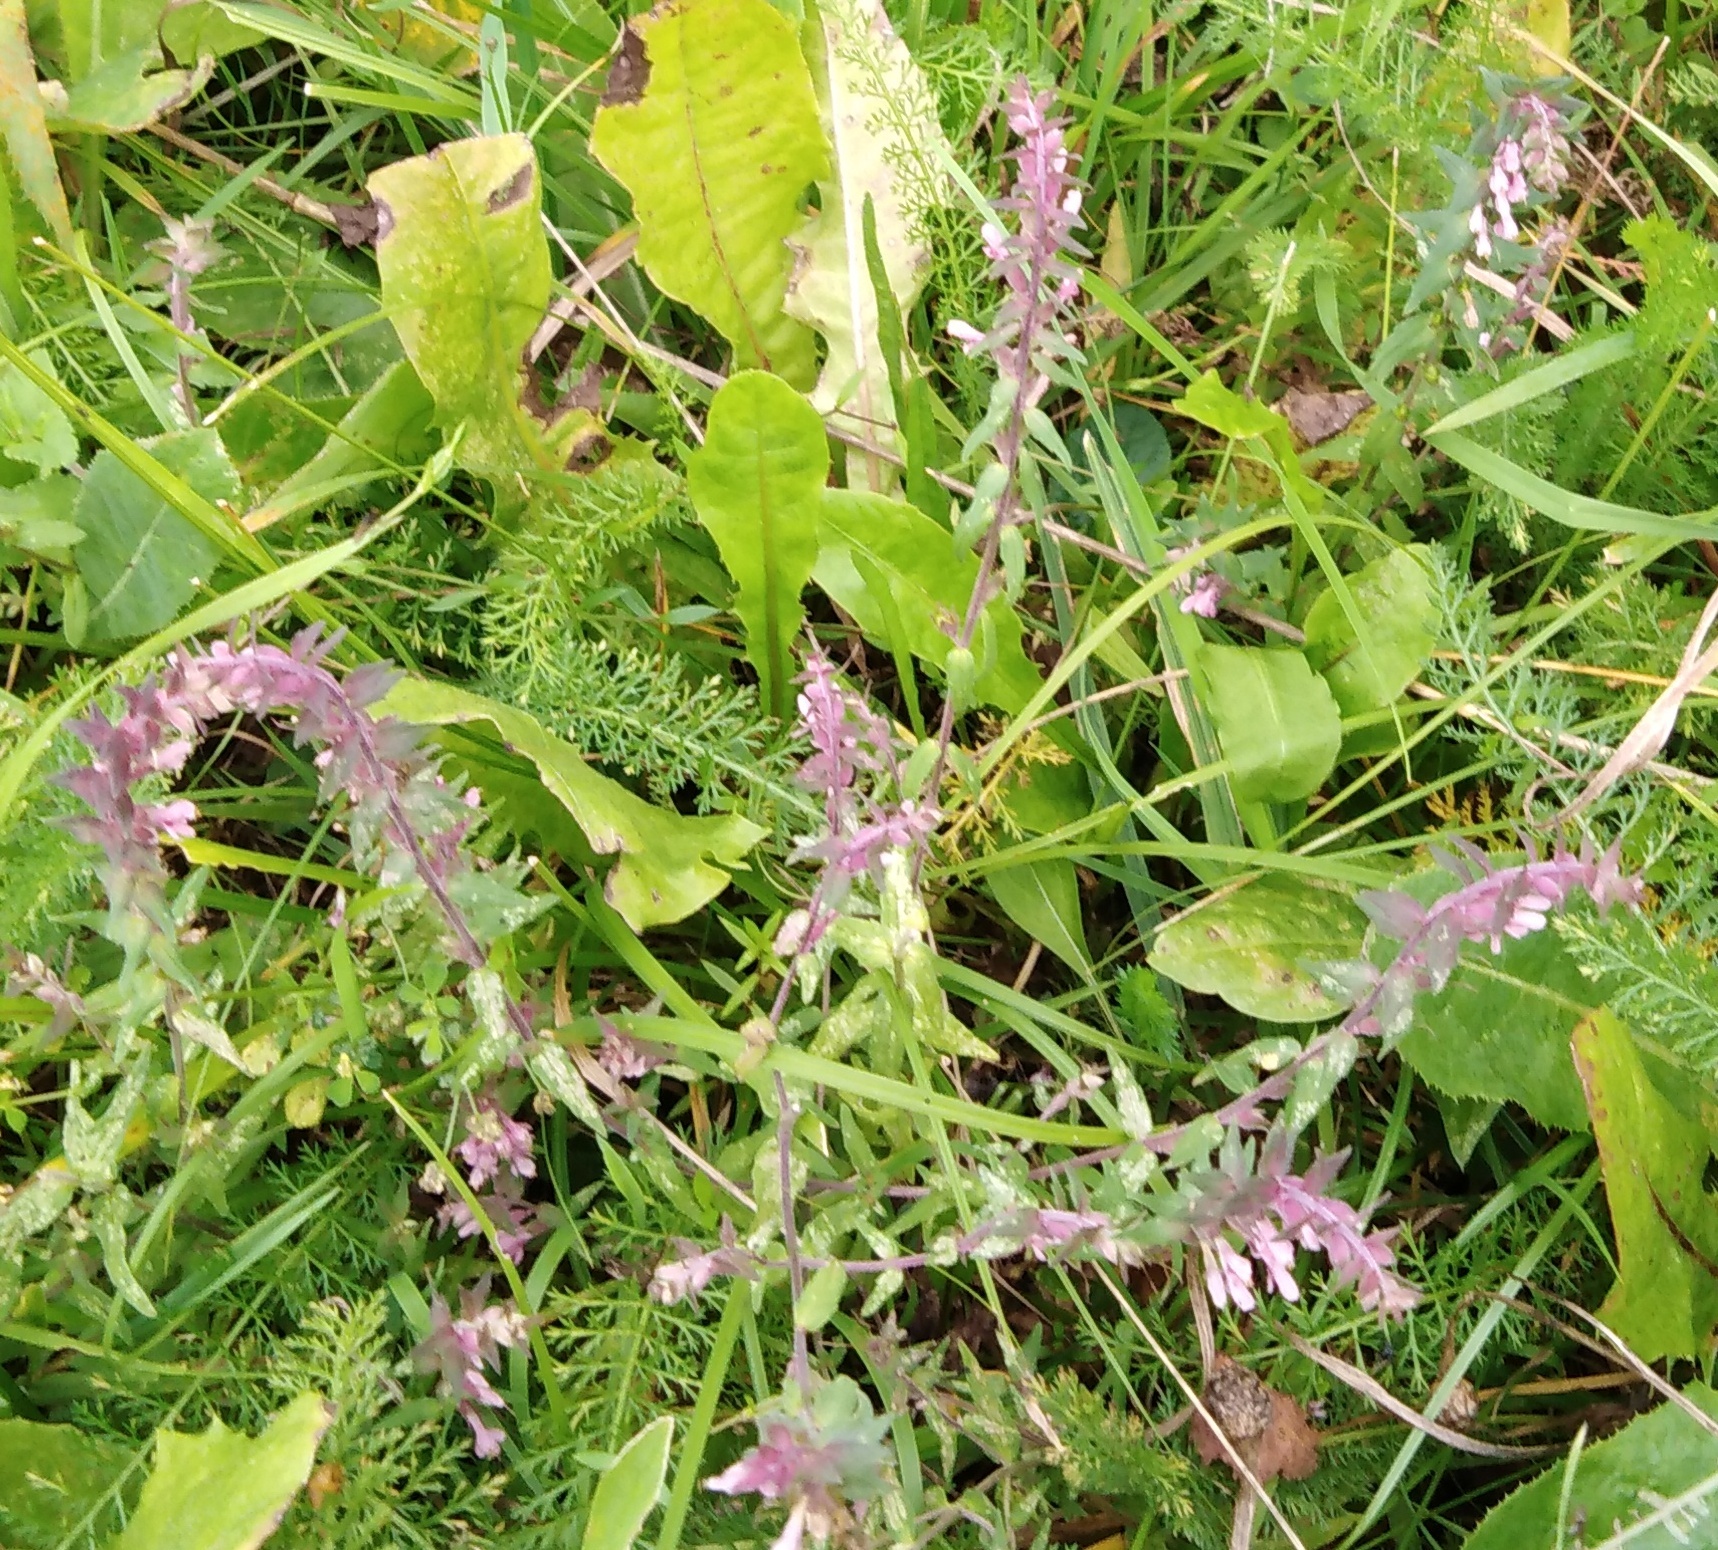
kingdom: Plantae
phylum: Tracheophyta
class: Magnoliopsida
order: Lamiales
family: Orobanchaceae
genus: Odontites
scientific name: Odontites vulgaris
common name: Broomrape
